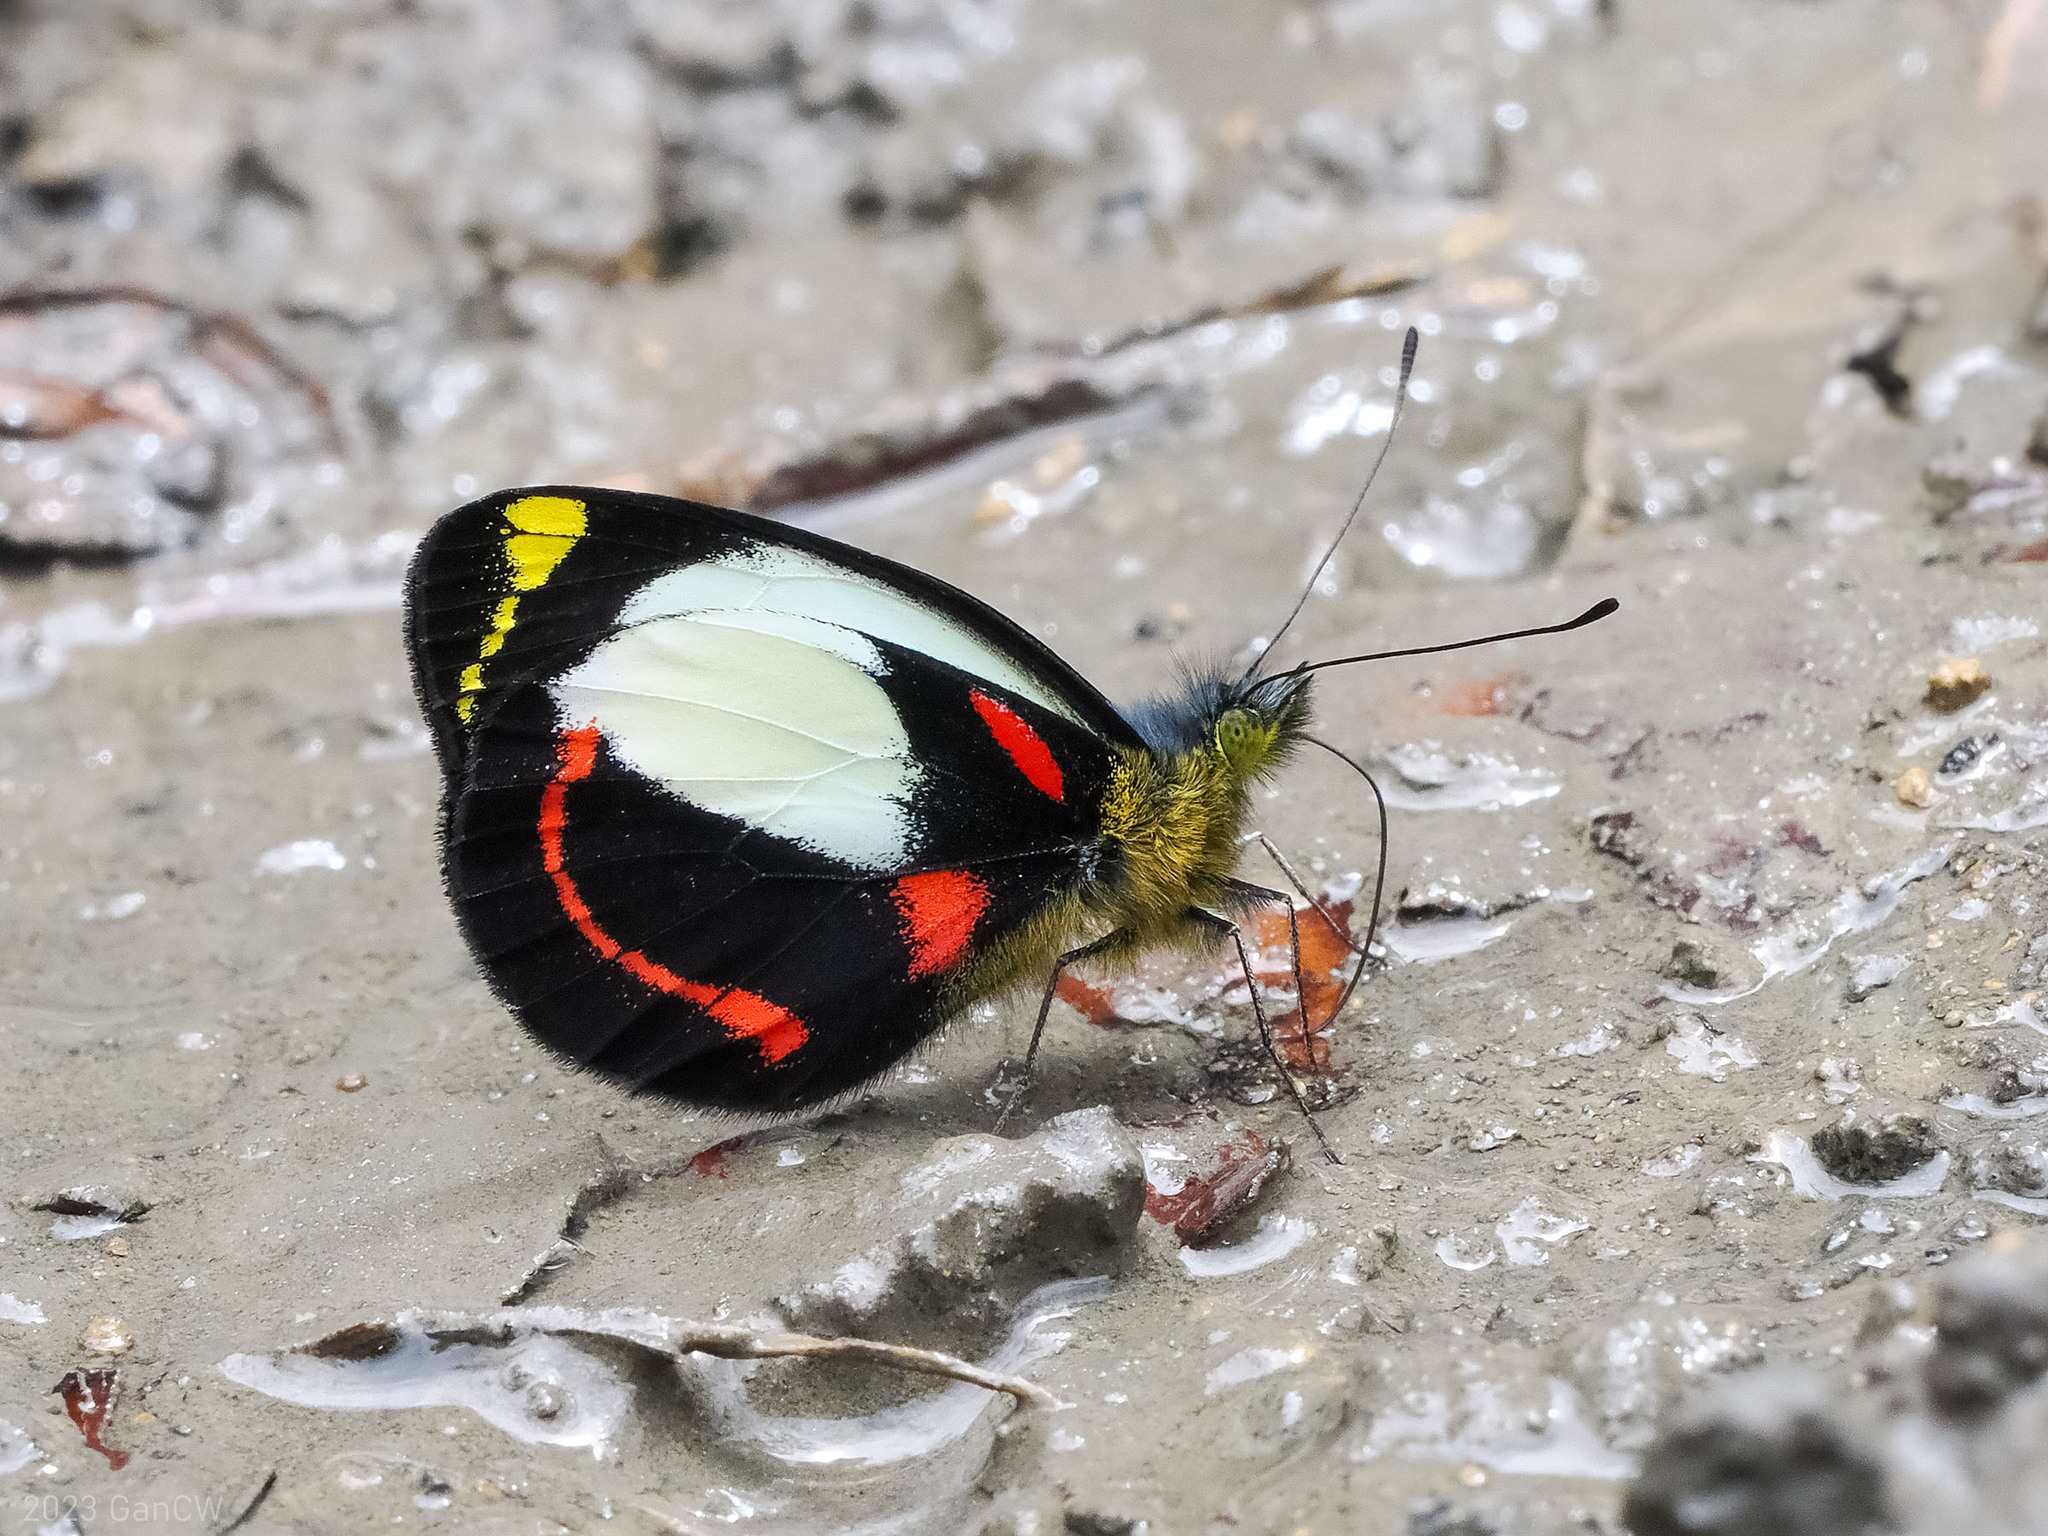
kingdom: Animalia
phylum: Arthropoda
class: Insecta
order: Lepidoptera
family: Pieridae
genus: Delias
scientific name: Delias alepa
